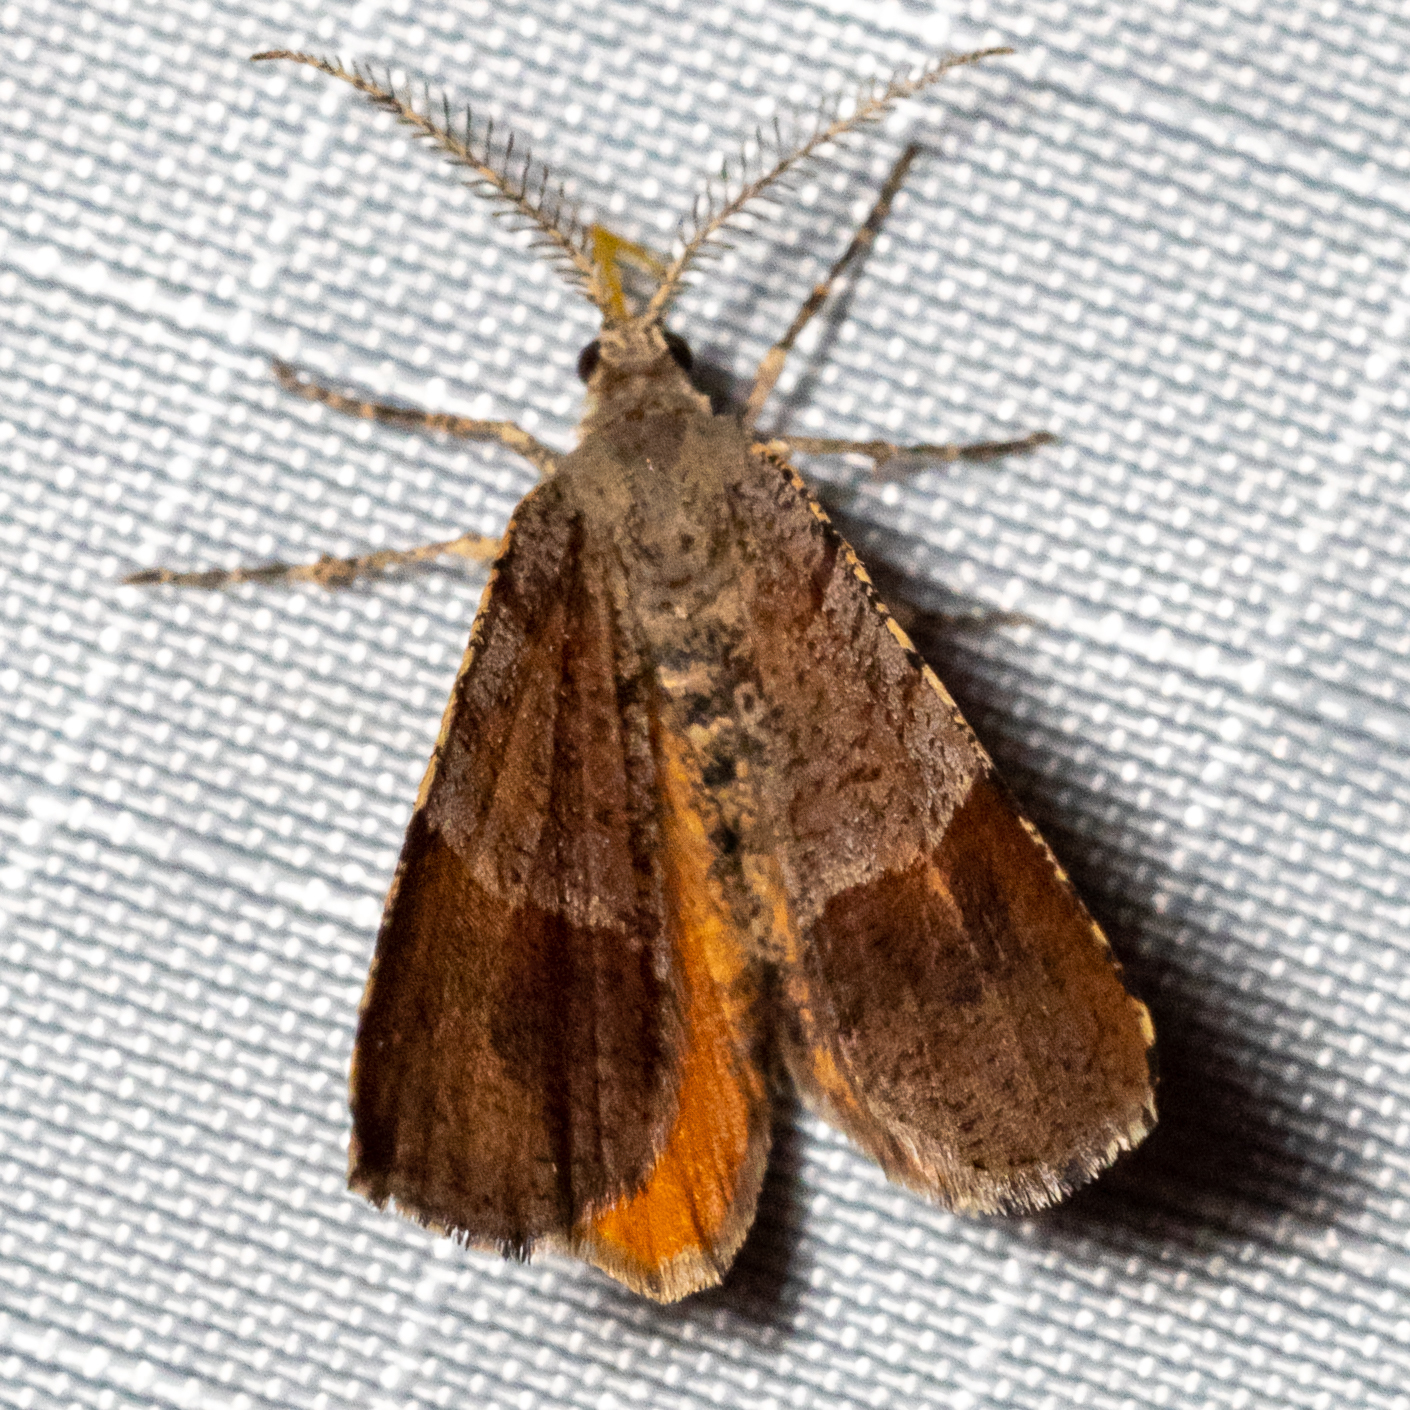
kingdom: Animalia
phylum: Arthropoda
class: Insecta
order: Lepidoptera
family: Geometridae
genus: Mellilla
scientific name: Mellilla xanthometata
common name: Orange wing moth
